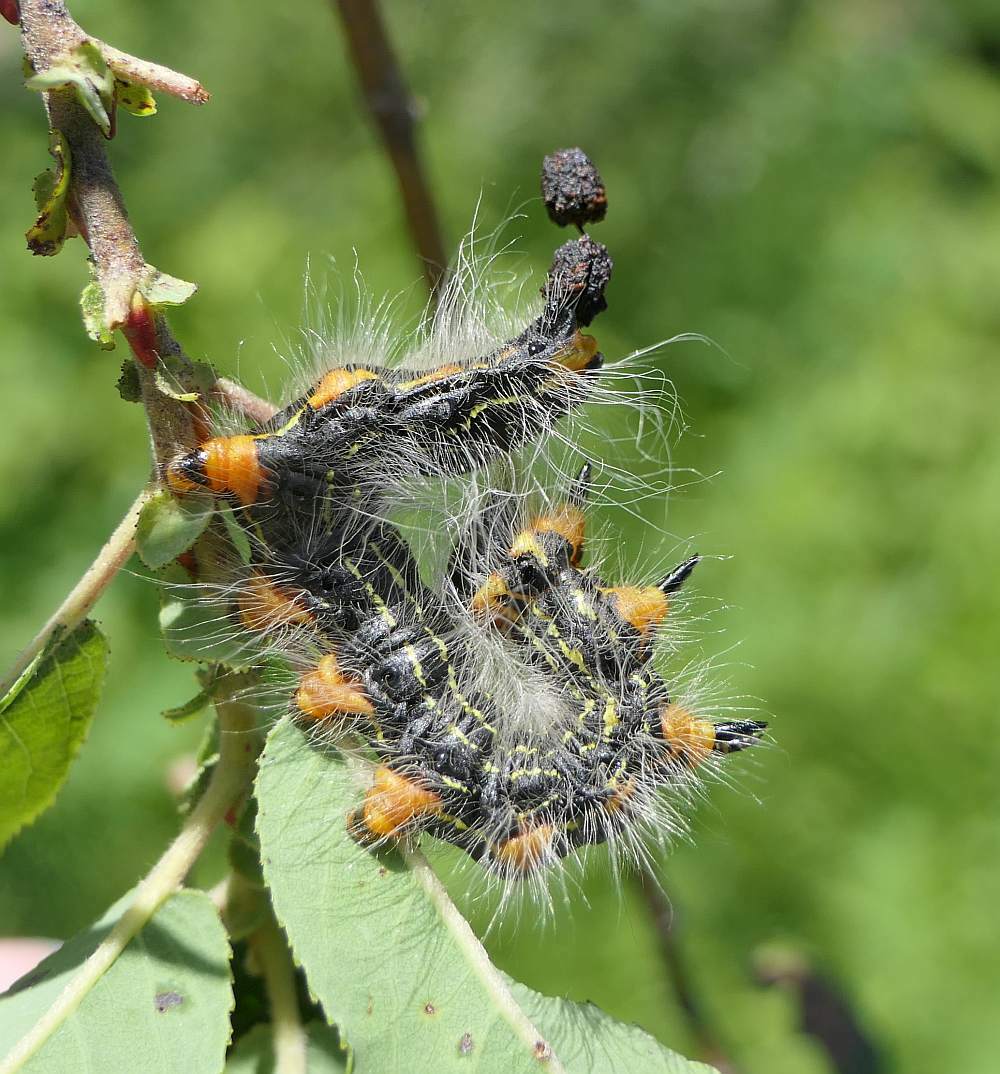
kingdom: Animalia
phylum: Arthropoda
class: Insecta
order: Lepidoptera
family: Notodontidae
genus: Datana
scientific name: Datana ministra
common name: Yellow-necked caterpillar moth
